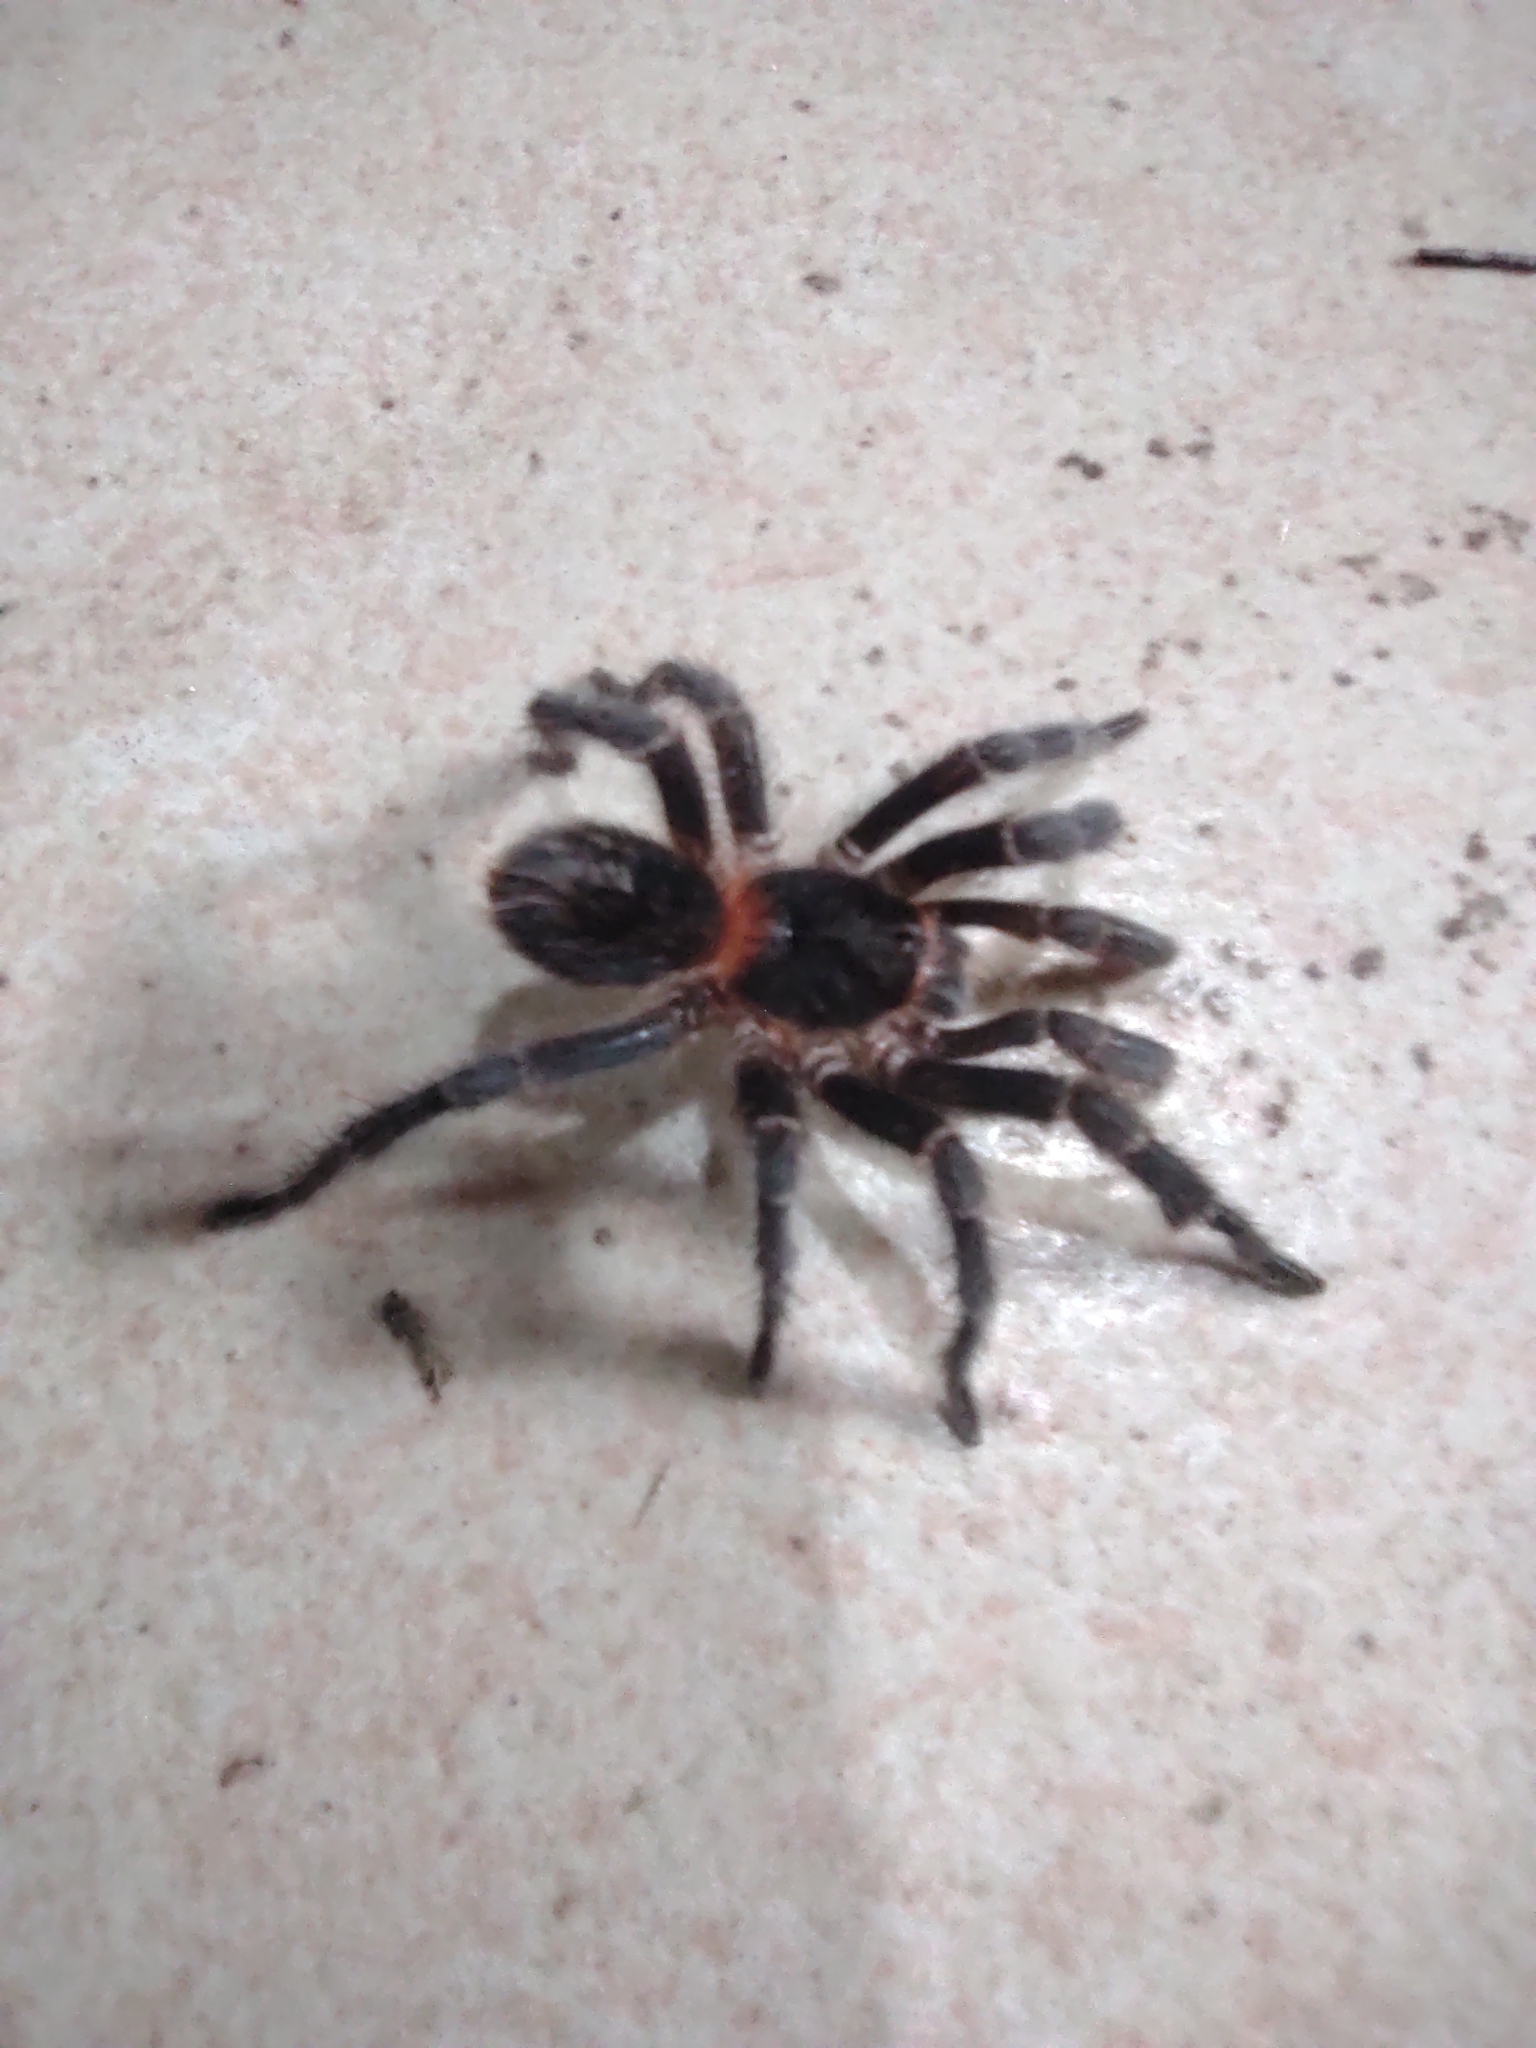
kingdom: Animalia
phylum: Arthropoda
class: Arachnida
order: Araneae
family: Theraphosidae
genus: Homoeomma
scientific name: Homoeomma uruguayense
